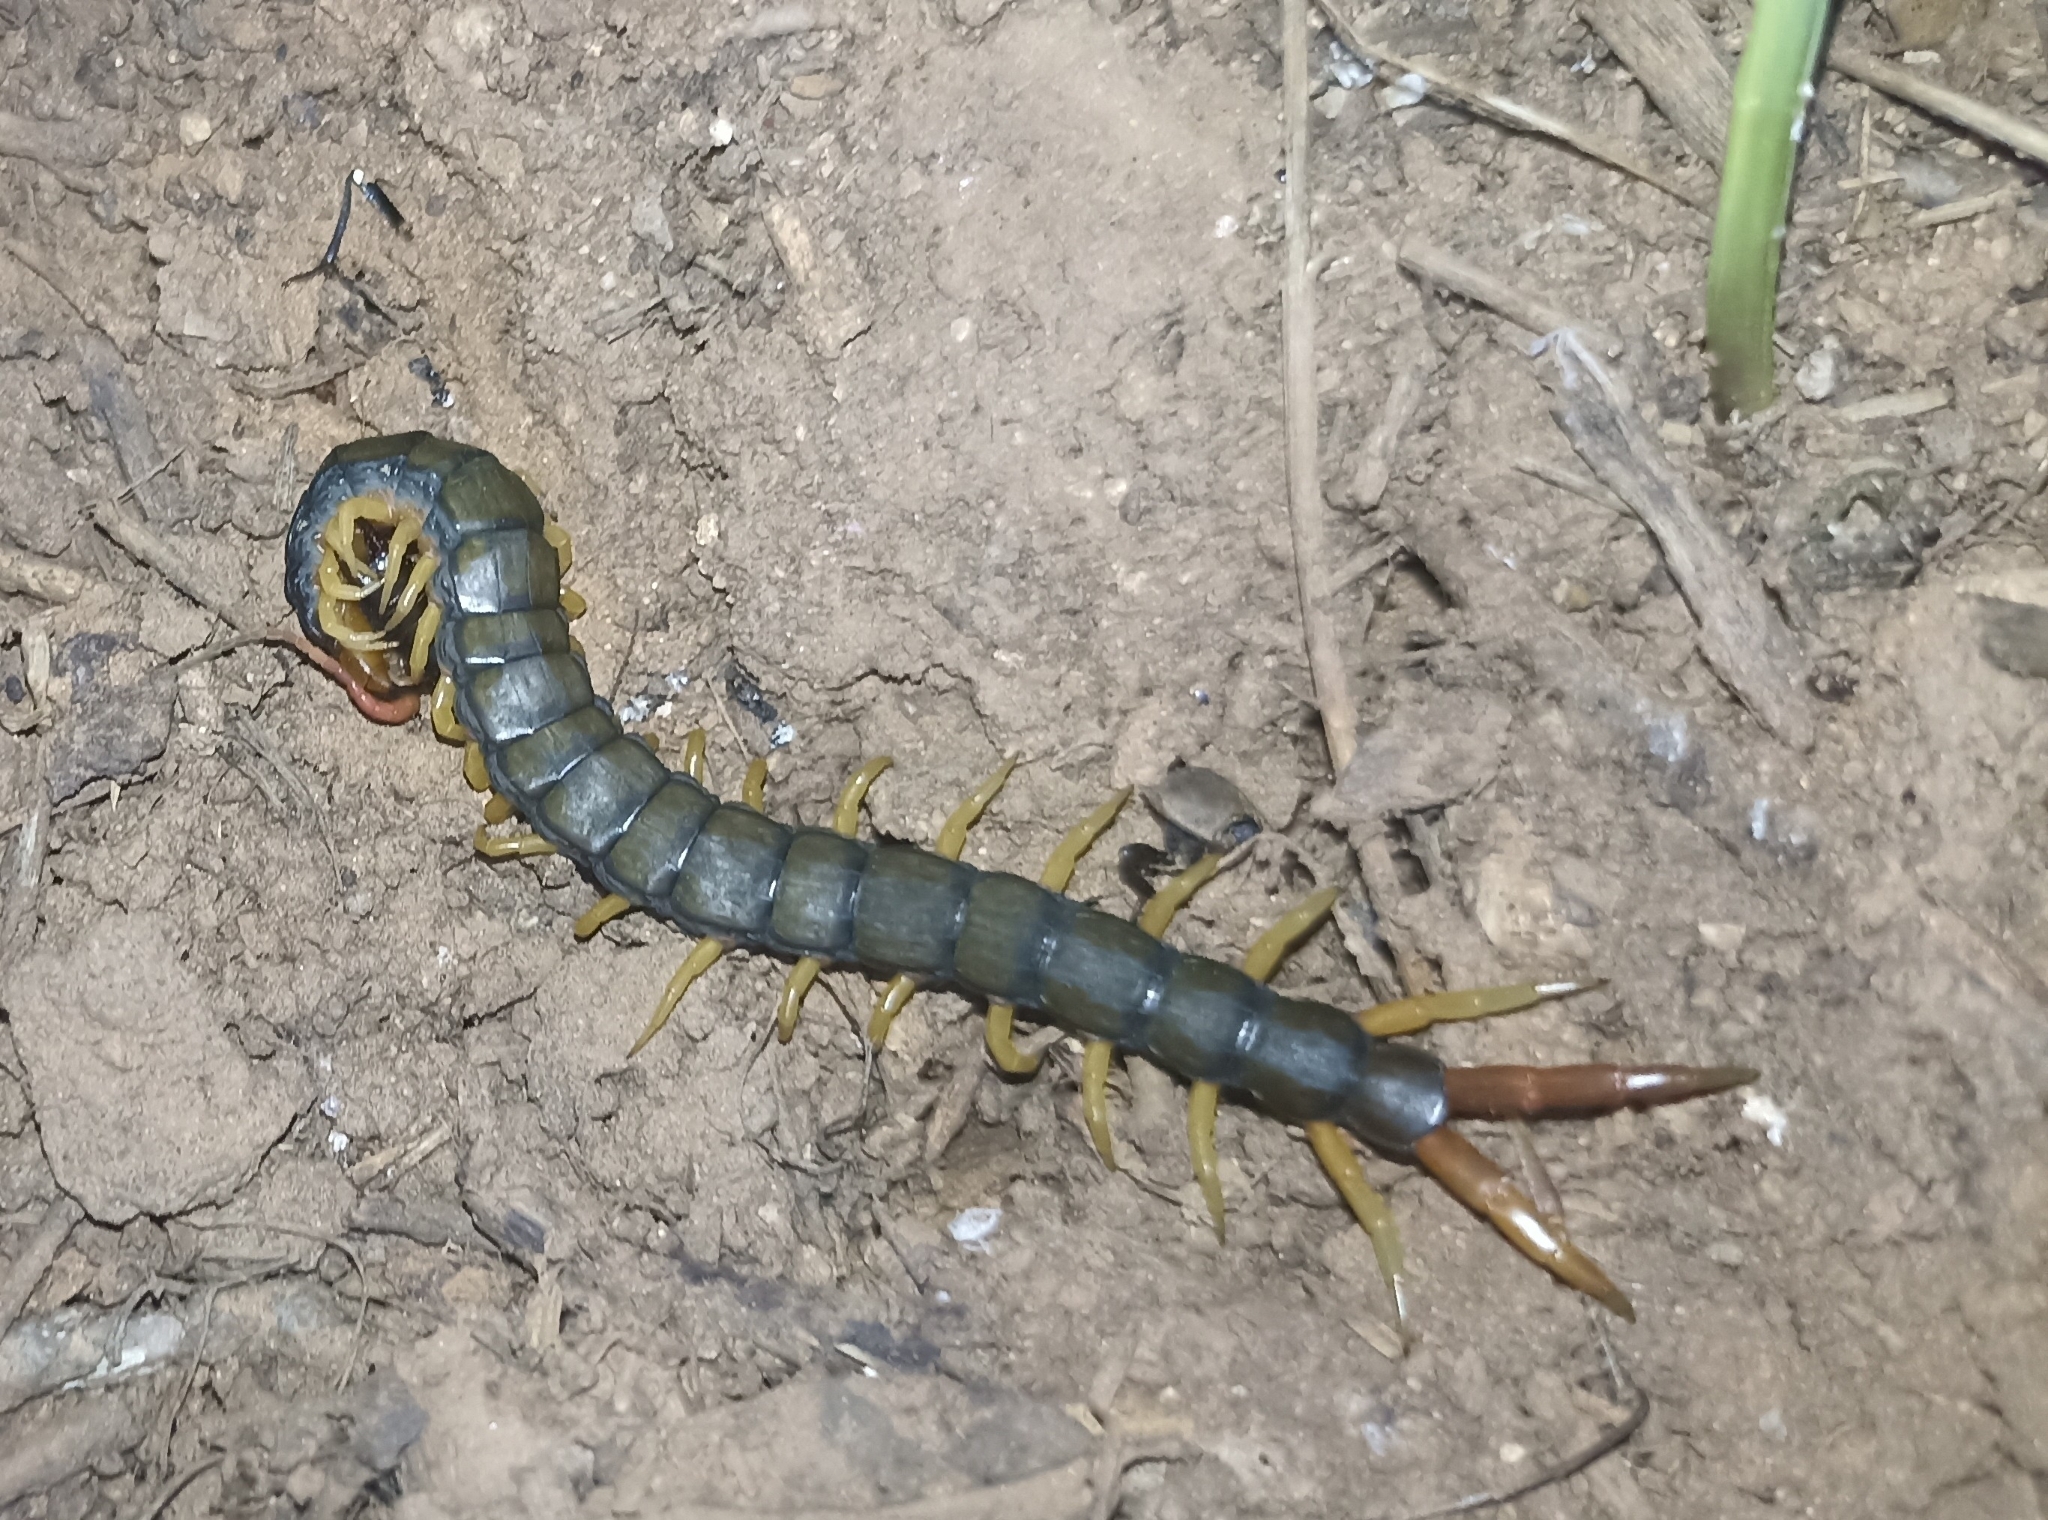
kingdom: Animalia
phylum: Arthropoda
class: Chilopoda
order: Scolopendromorpha
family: Scolopendridae
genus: Scolopendra
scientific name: Scolopendra cingulata
